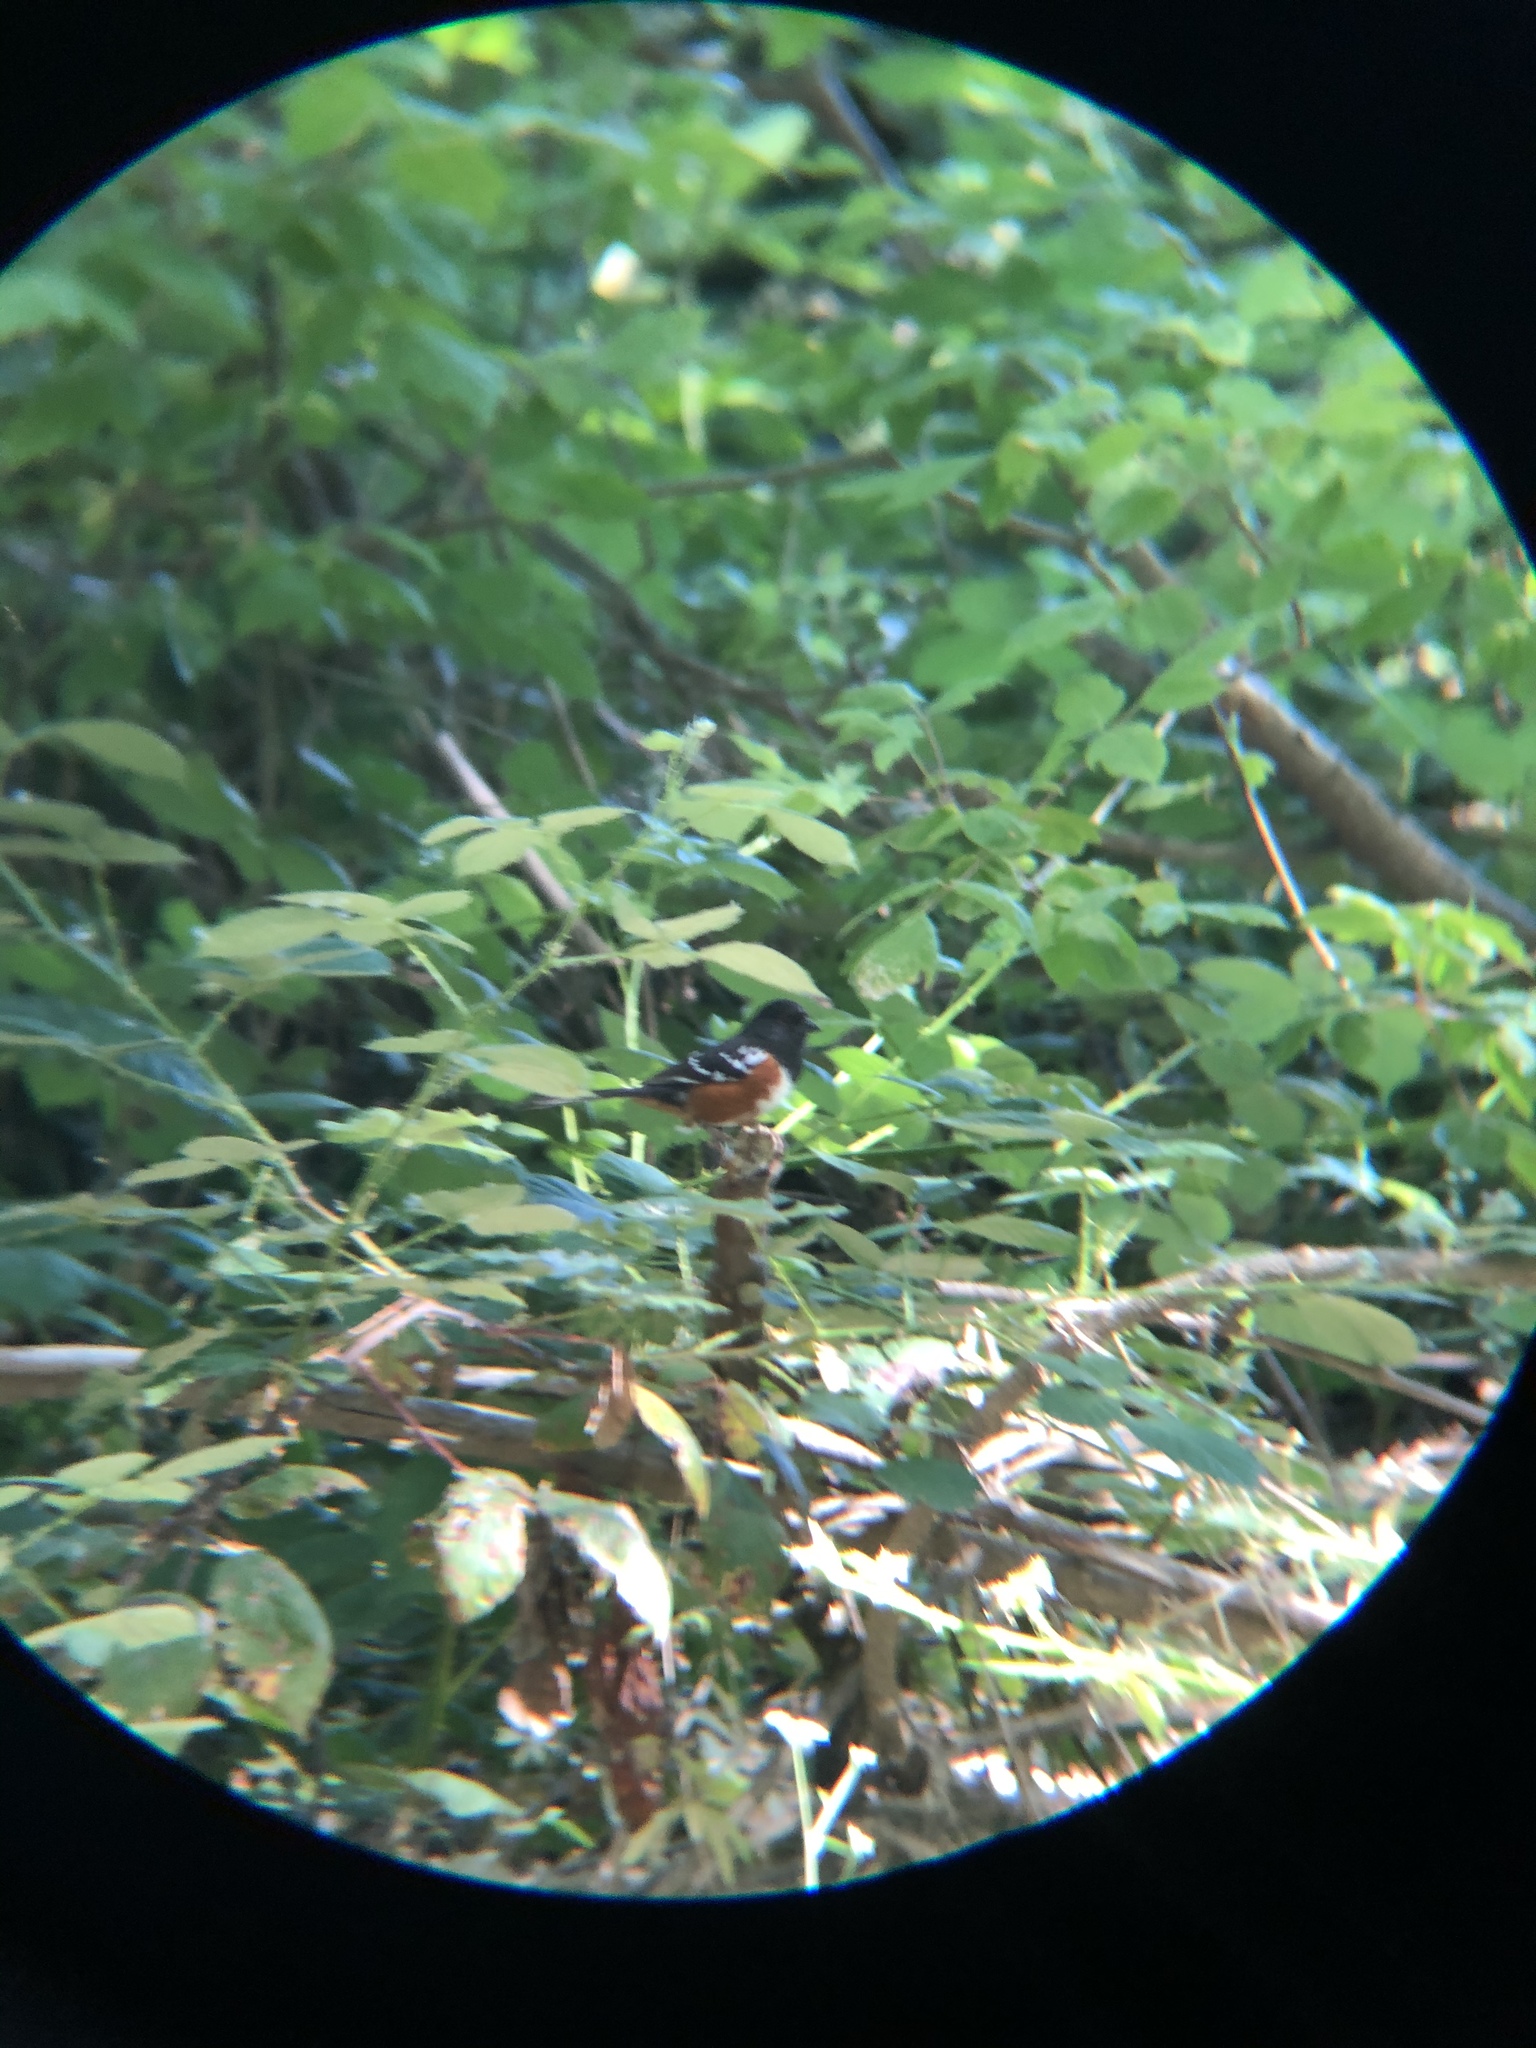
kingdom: Animalia
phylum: Chordata
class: Aves
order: Passeriformes
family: Passerellidae
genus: Pipilo
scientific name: Pipilo maculatus
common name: Spotted towhee
